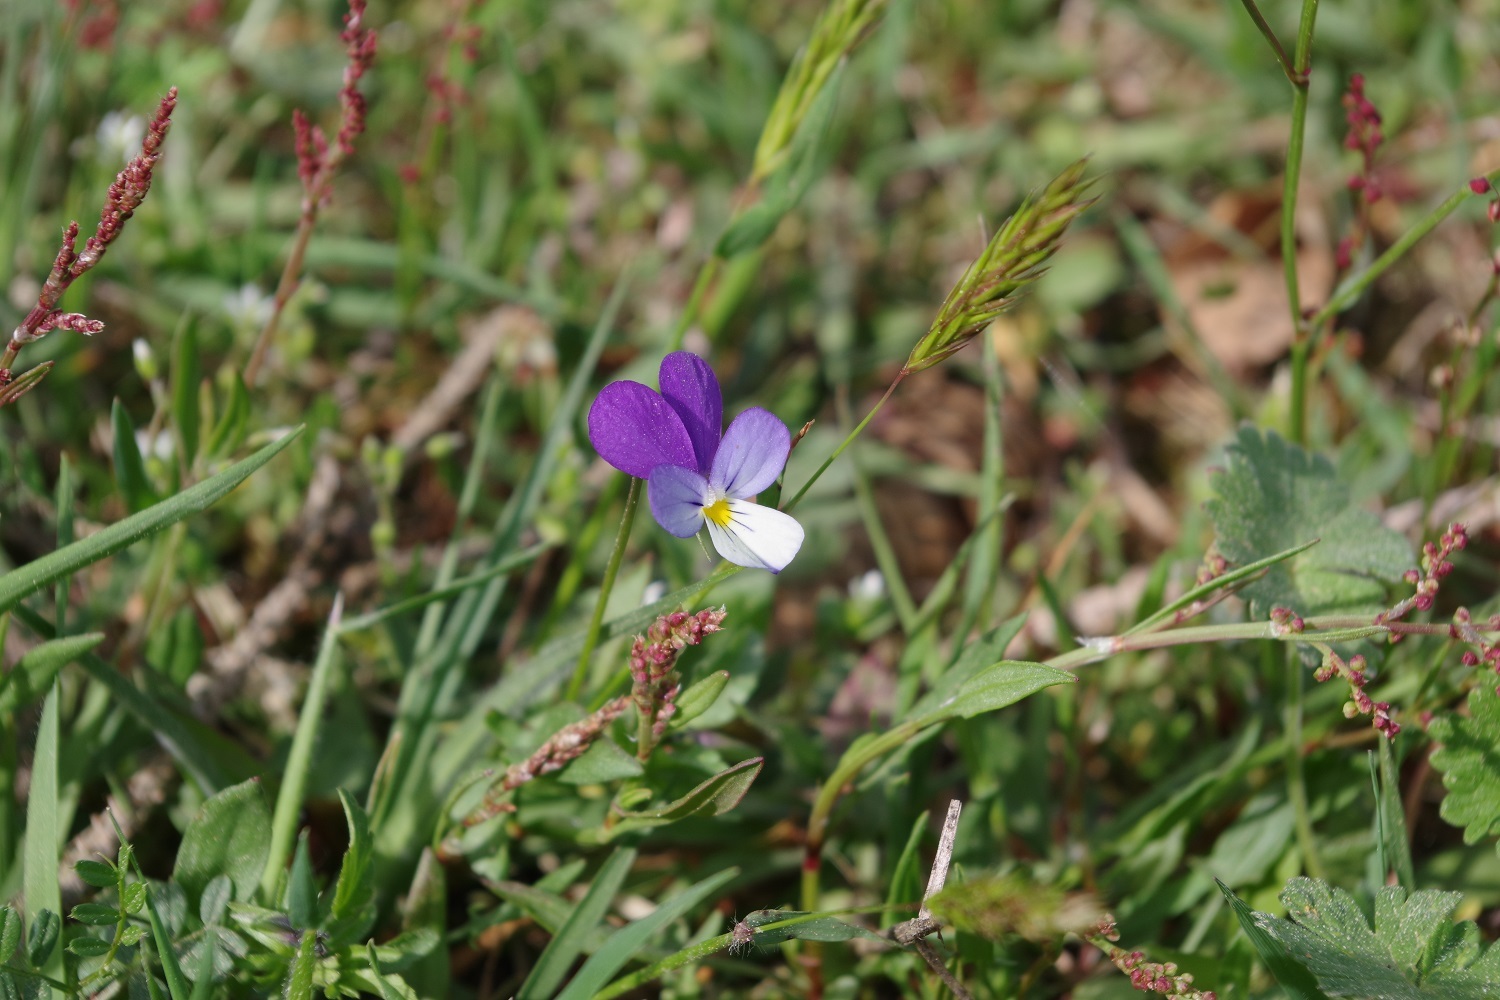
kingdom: Plantae
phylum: Tracheophyta
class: Magnoliopsida
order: Malpighiales
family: Violaceae
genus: Viola
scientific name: Viola tricolor
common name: Pansy
